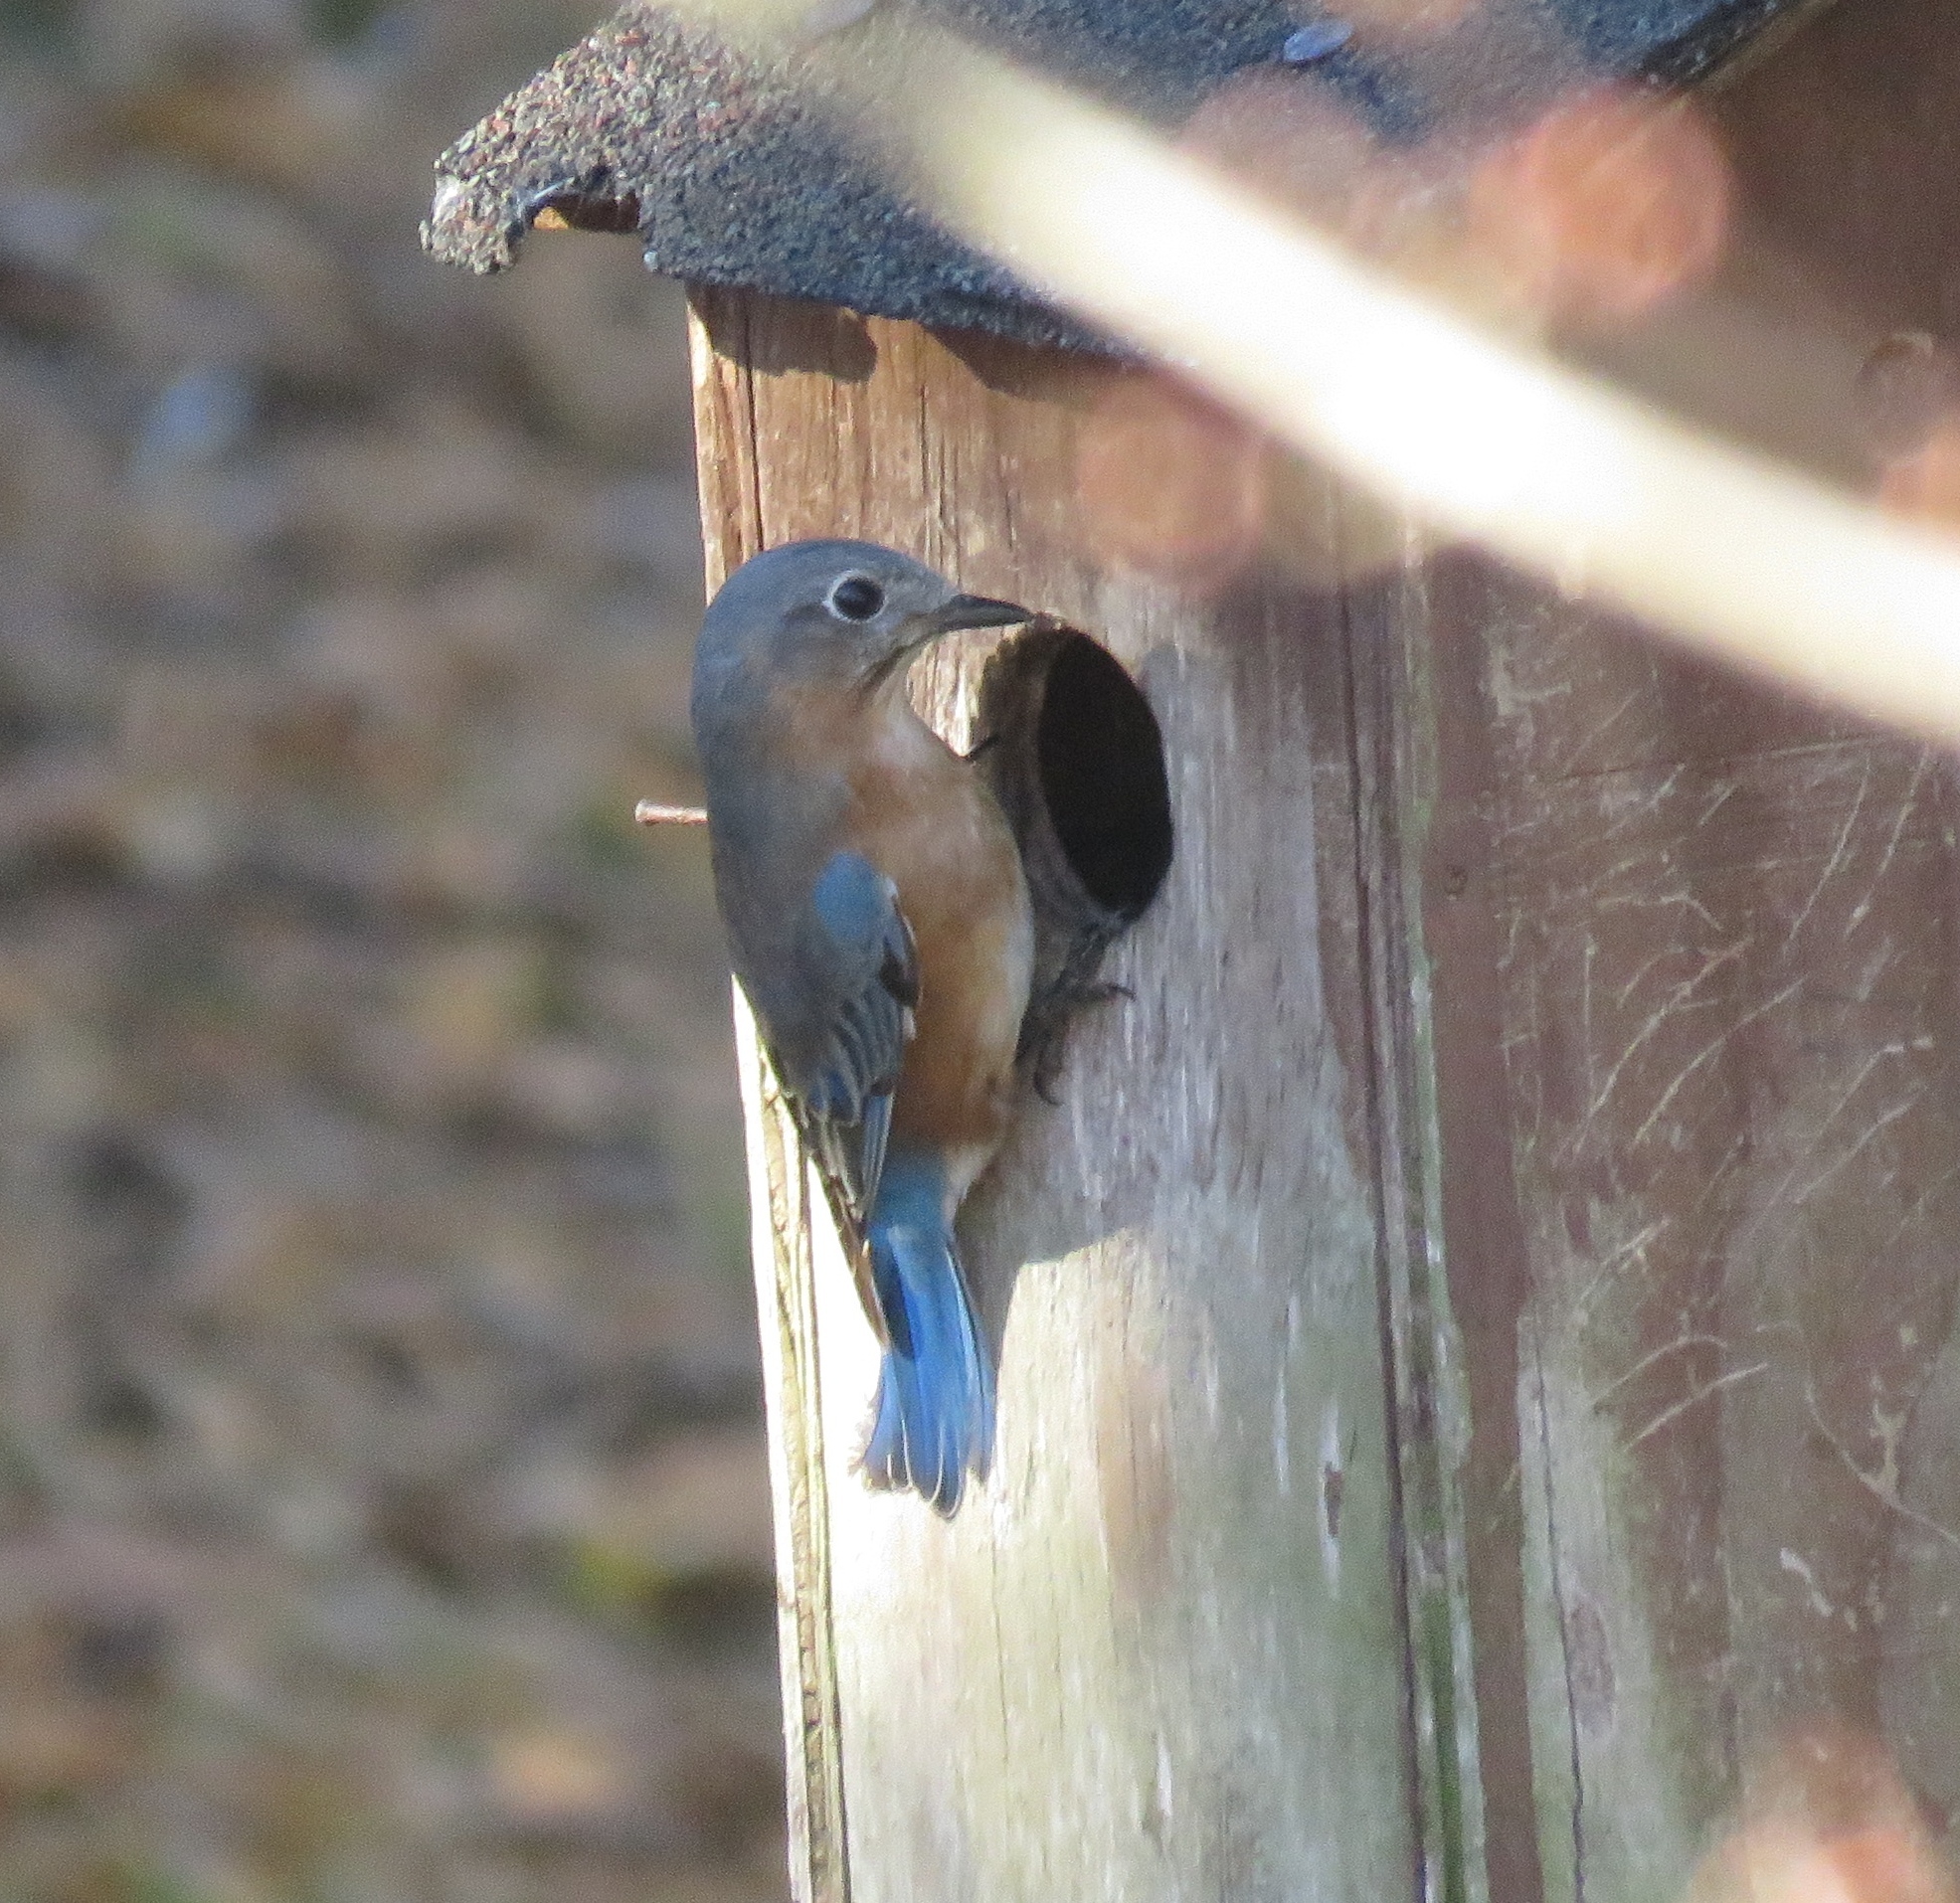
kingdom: Animalia
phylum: Chordata
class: Aves
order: Passeriformes
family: Turdidae
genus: Sialia
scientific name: Sialia sialis
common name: Eastern bluebird
